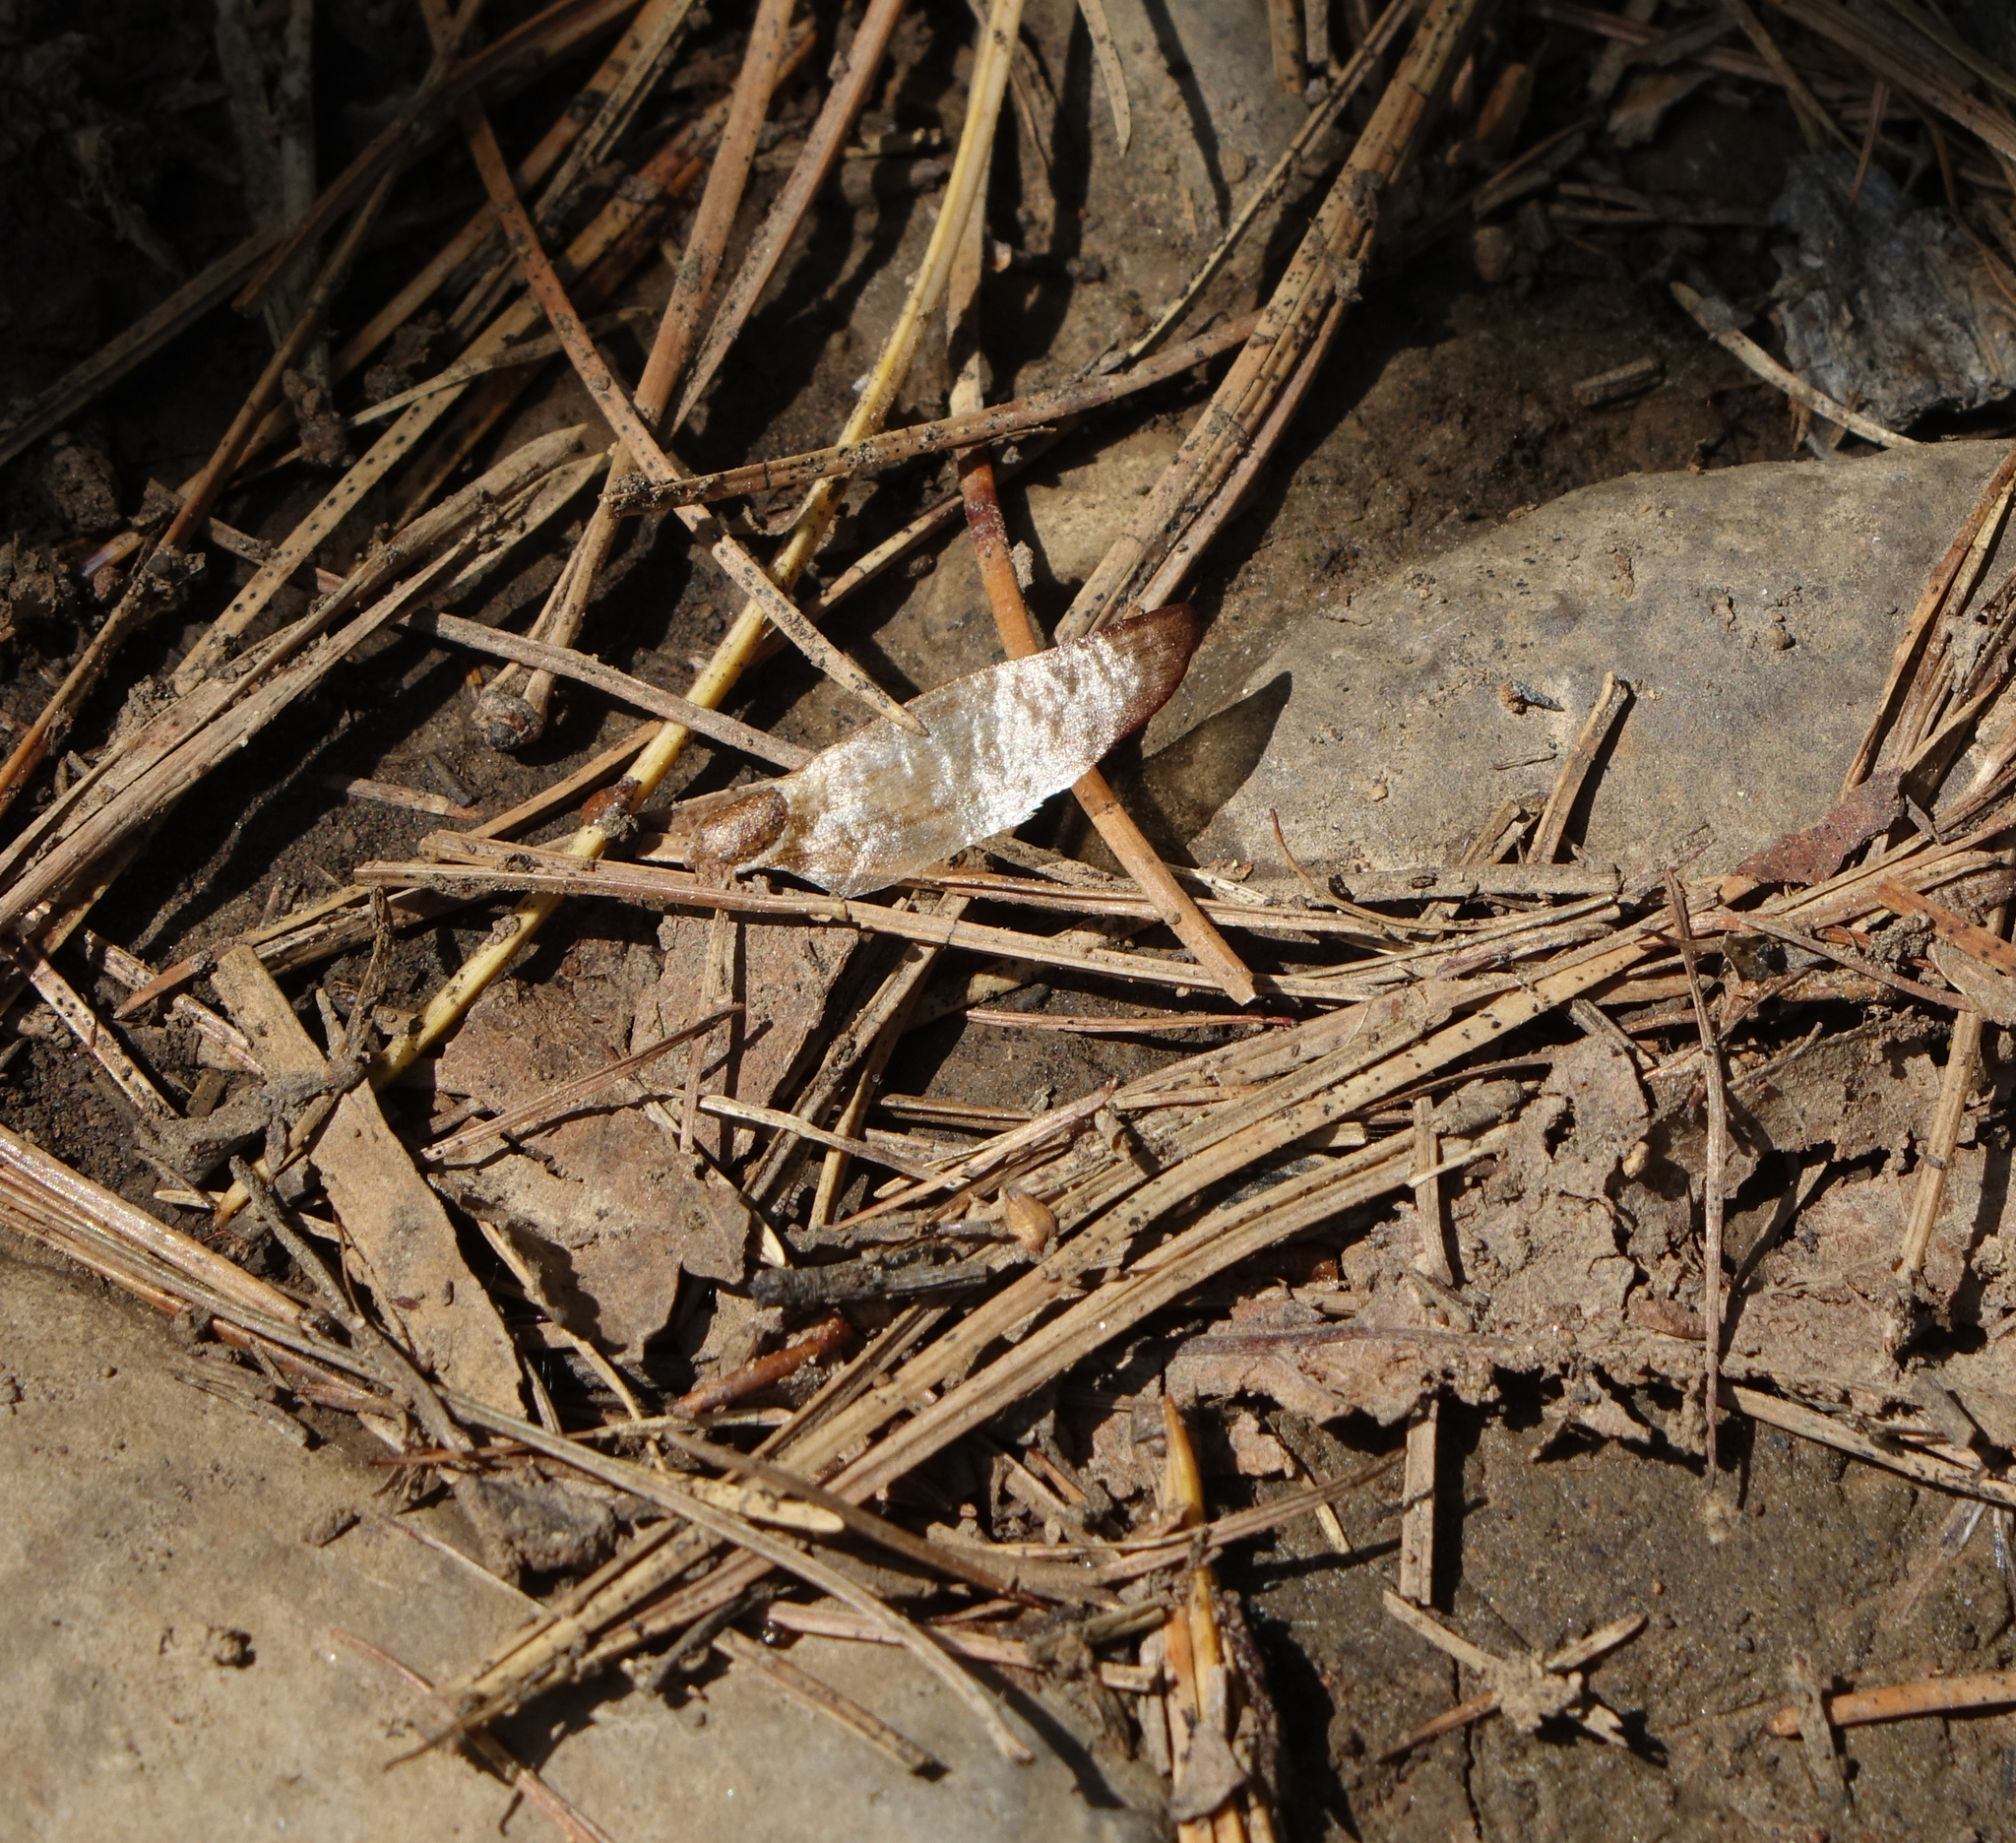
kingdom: Plantae
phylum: Tracheophyta
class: Pinopsida
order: Pinales
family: Pinaceae
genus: Pinus
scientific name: Pinus sylvestris
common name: Scots pine
